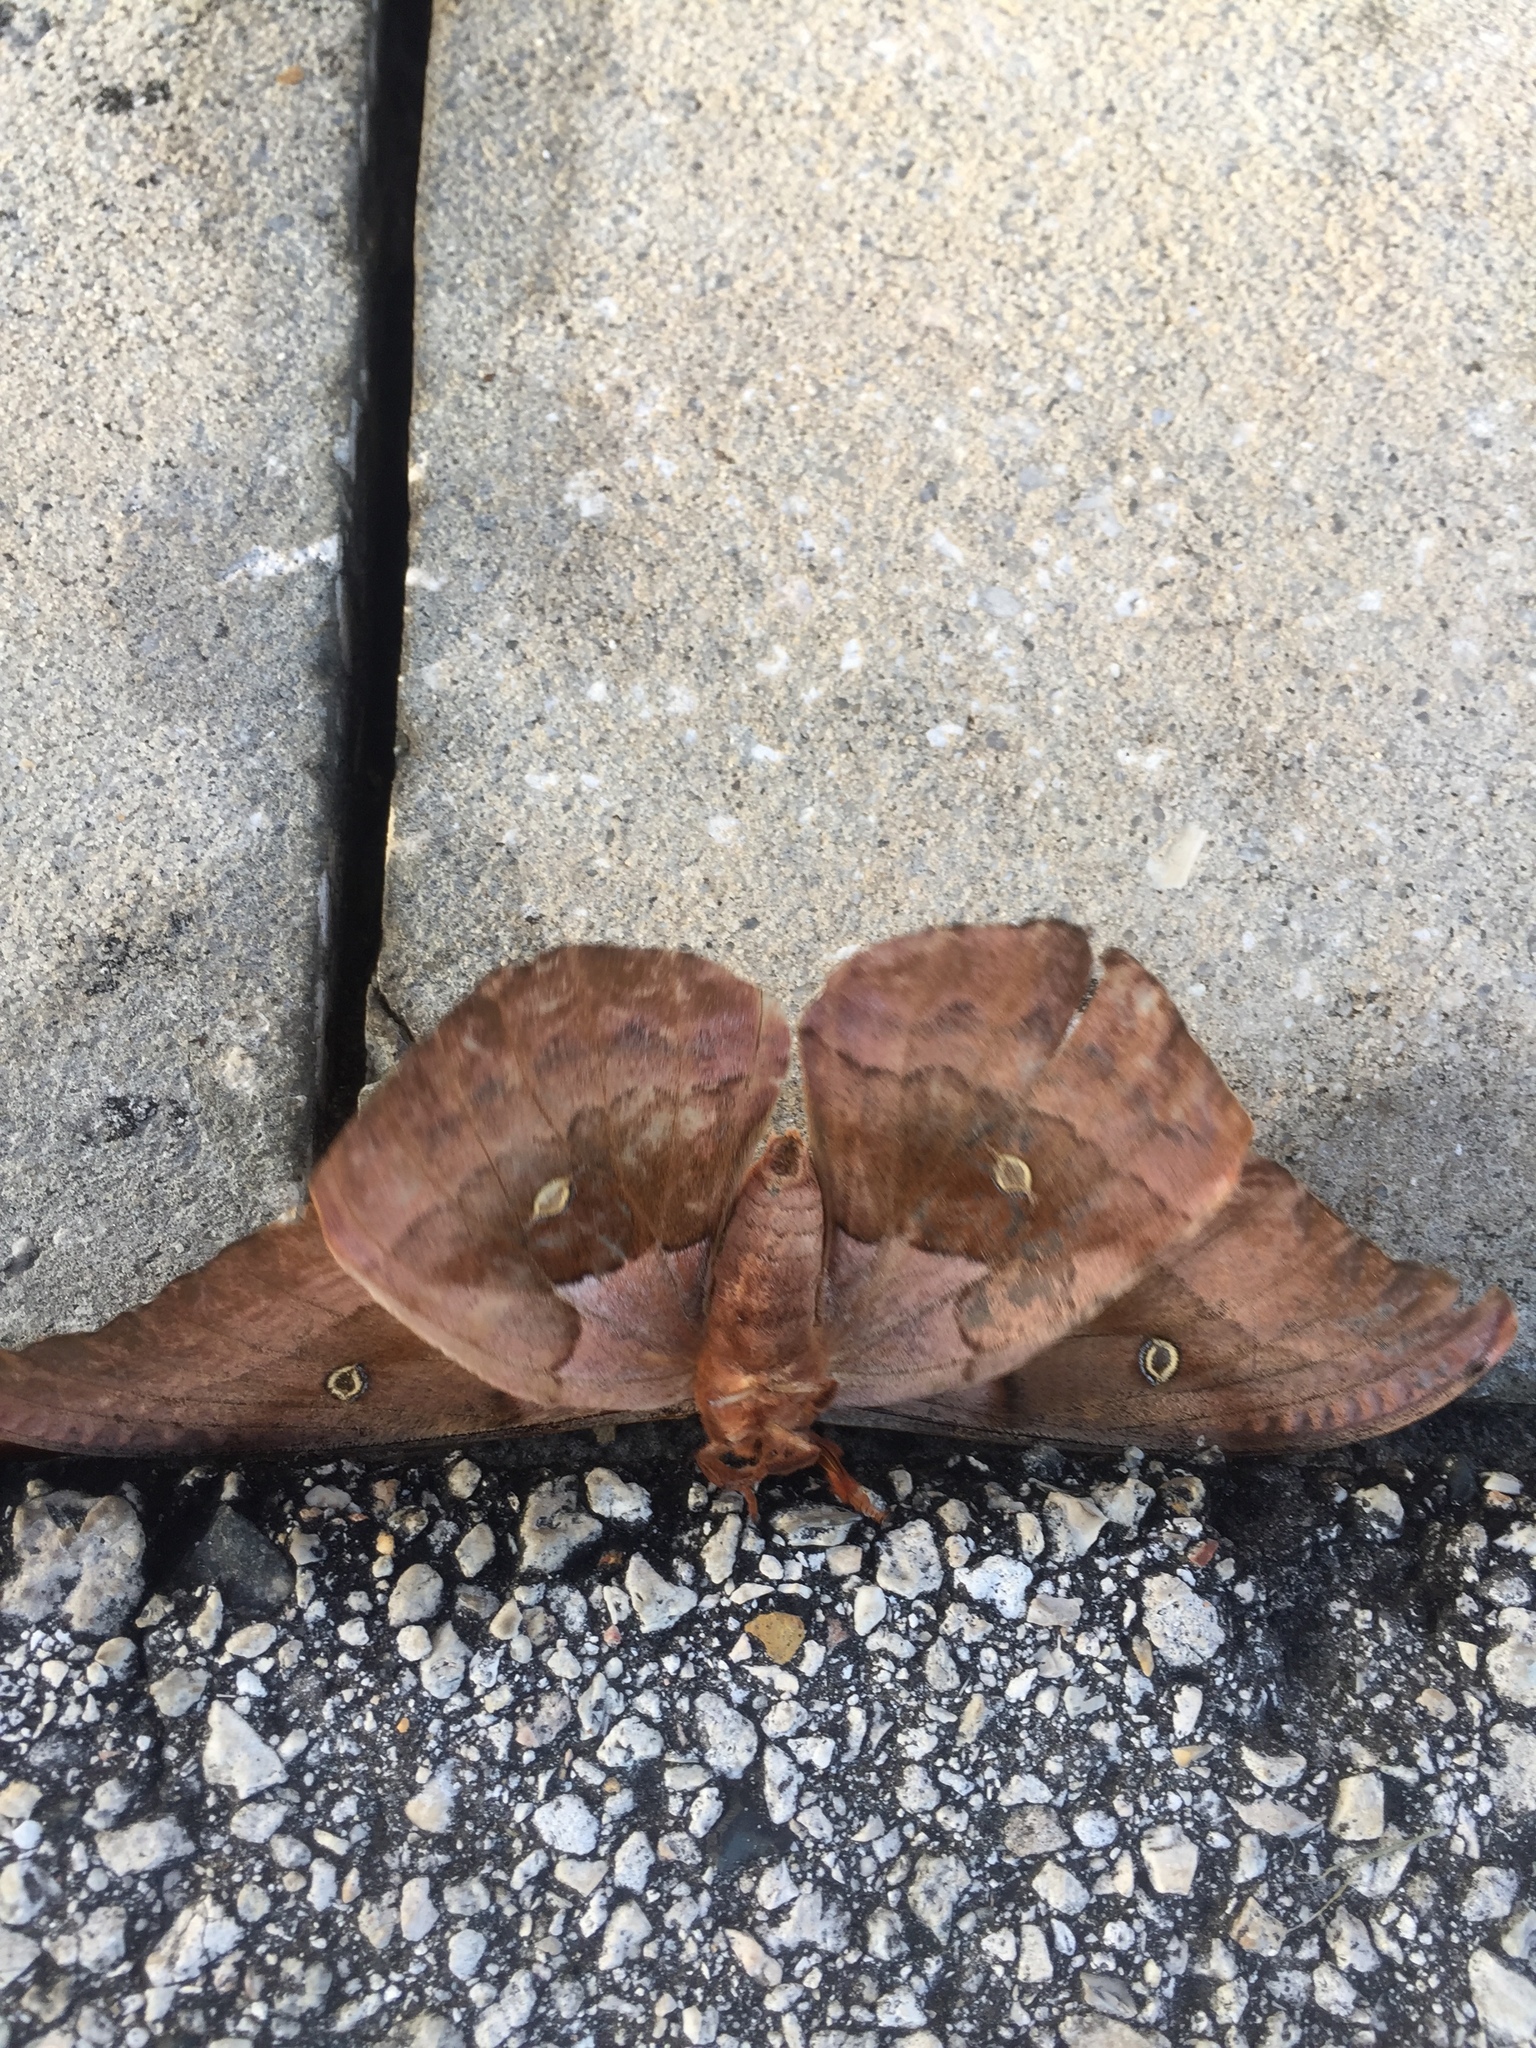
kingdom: Animalia
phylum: Arthropoda
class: Insecta
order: Lepidoptera
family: Saturniidae
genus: Antheraea
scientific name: Antheraea polyphemus
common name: Polyphemus moth
